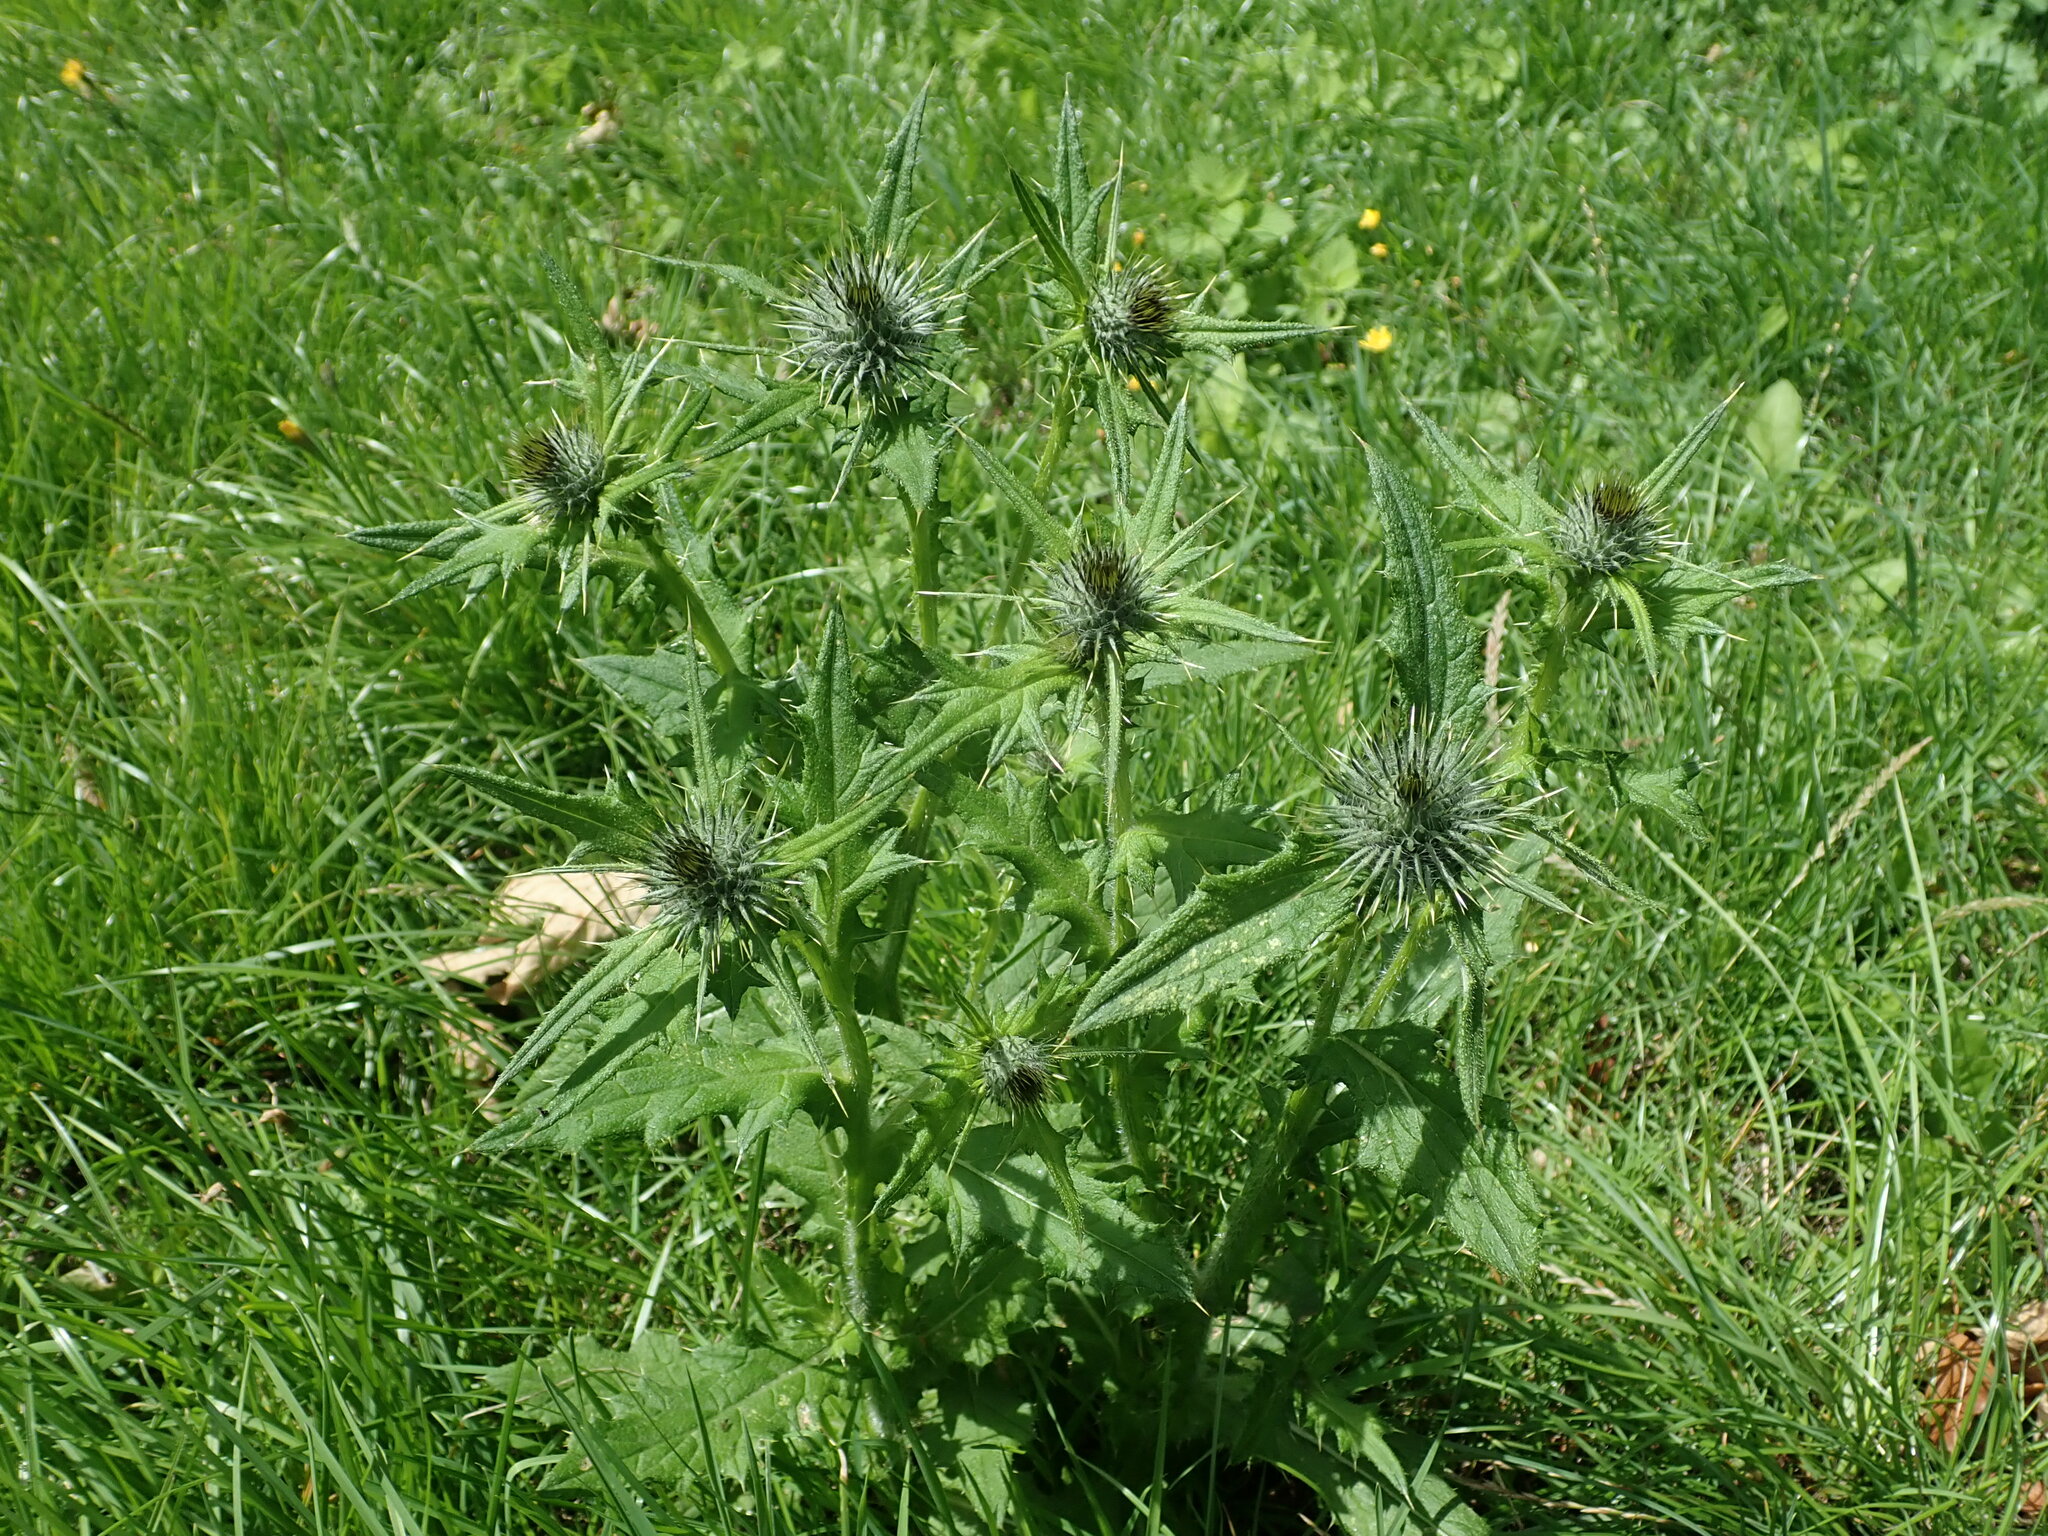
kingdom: Plantae
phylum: Tracheophyta
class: Magnoliopsida
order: Asterales
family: Asteraceae
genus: Cirsium
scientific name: Cirsium vulgare
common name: Bull thistle
